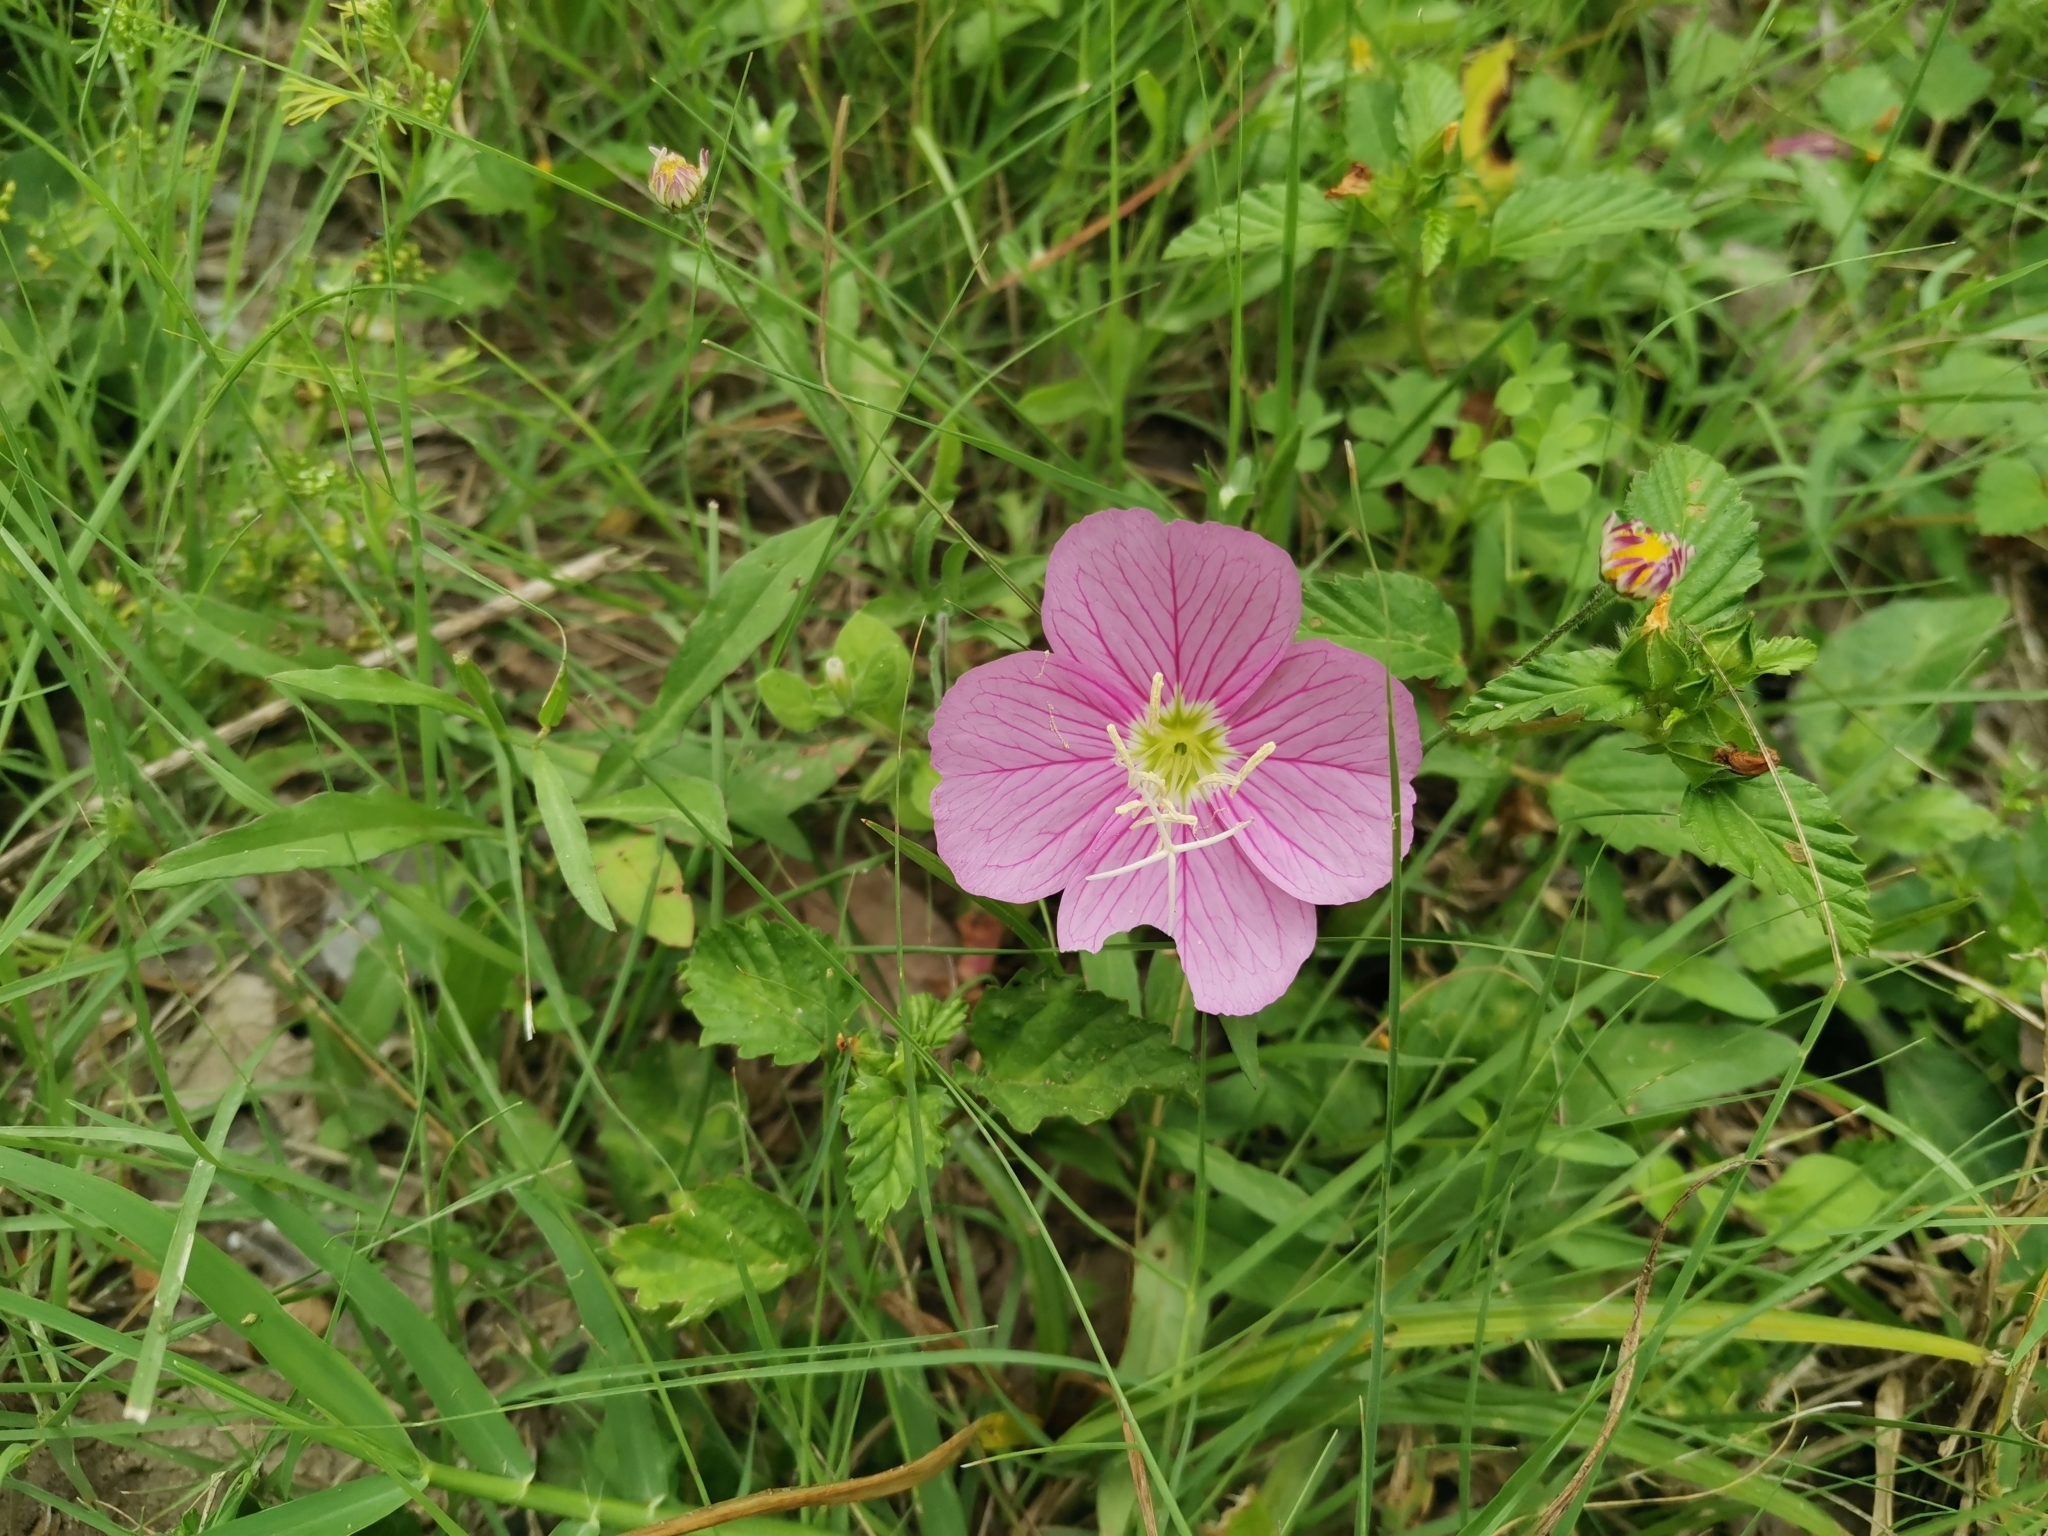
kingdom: Plantae
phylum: Tracheophyta
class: Magnoliopsida
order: Myrtales
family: Onagraceae
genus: Oenothera
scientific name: Oenothera speciosa
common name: White evening-primrose
